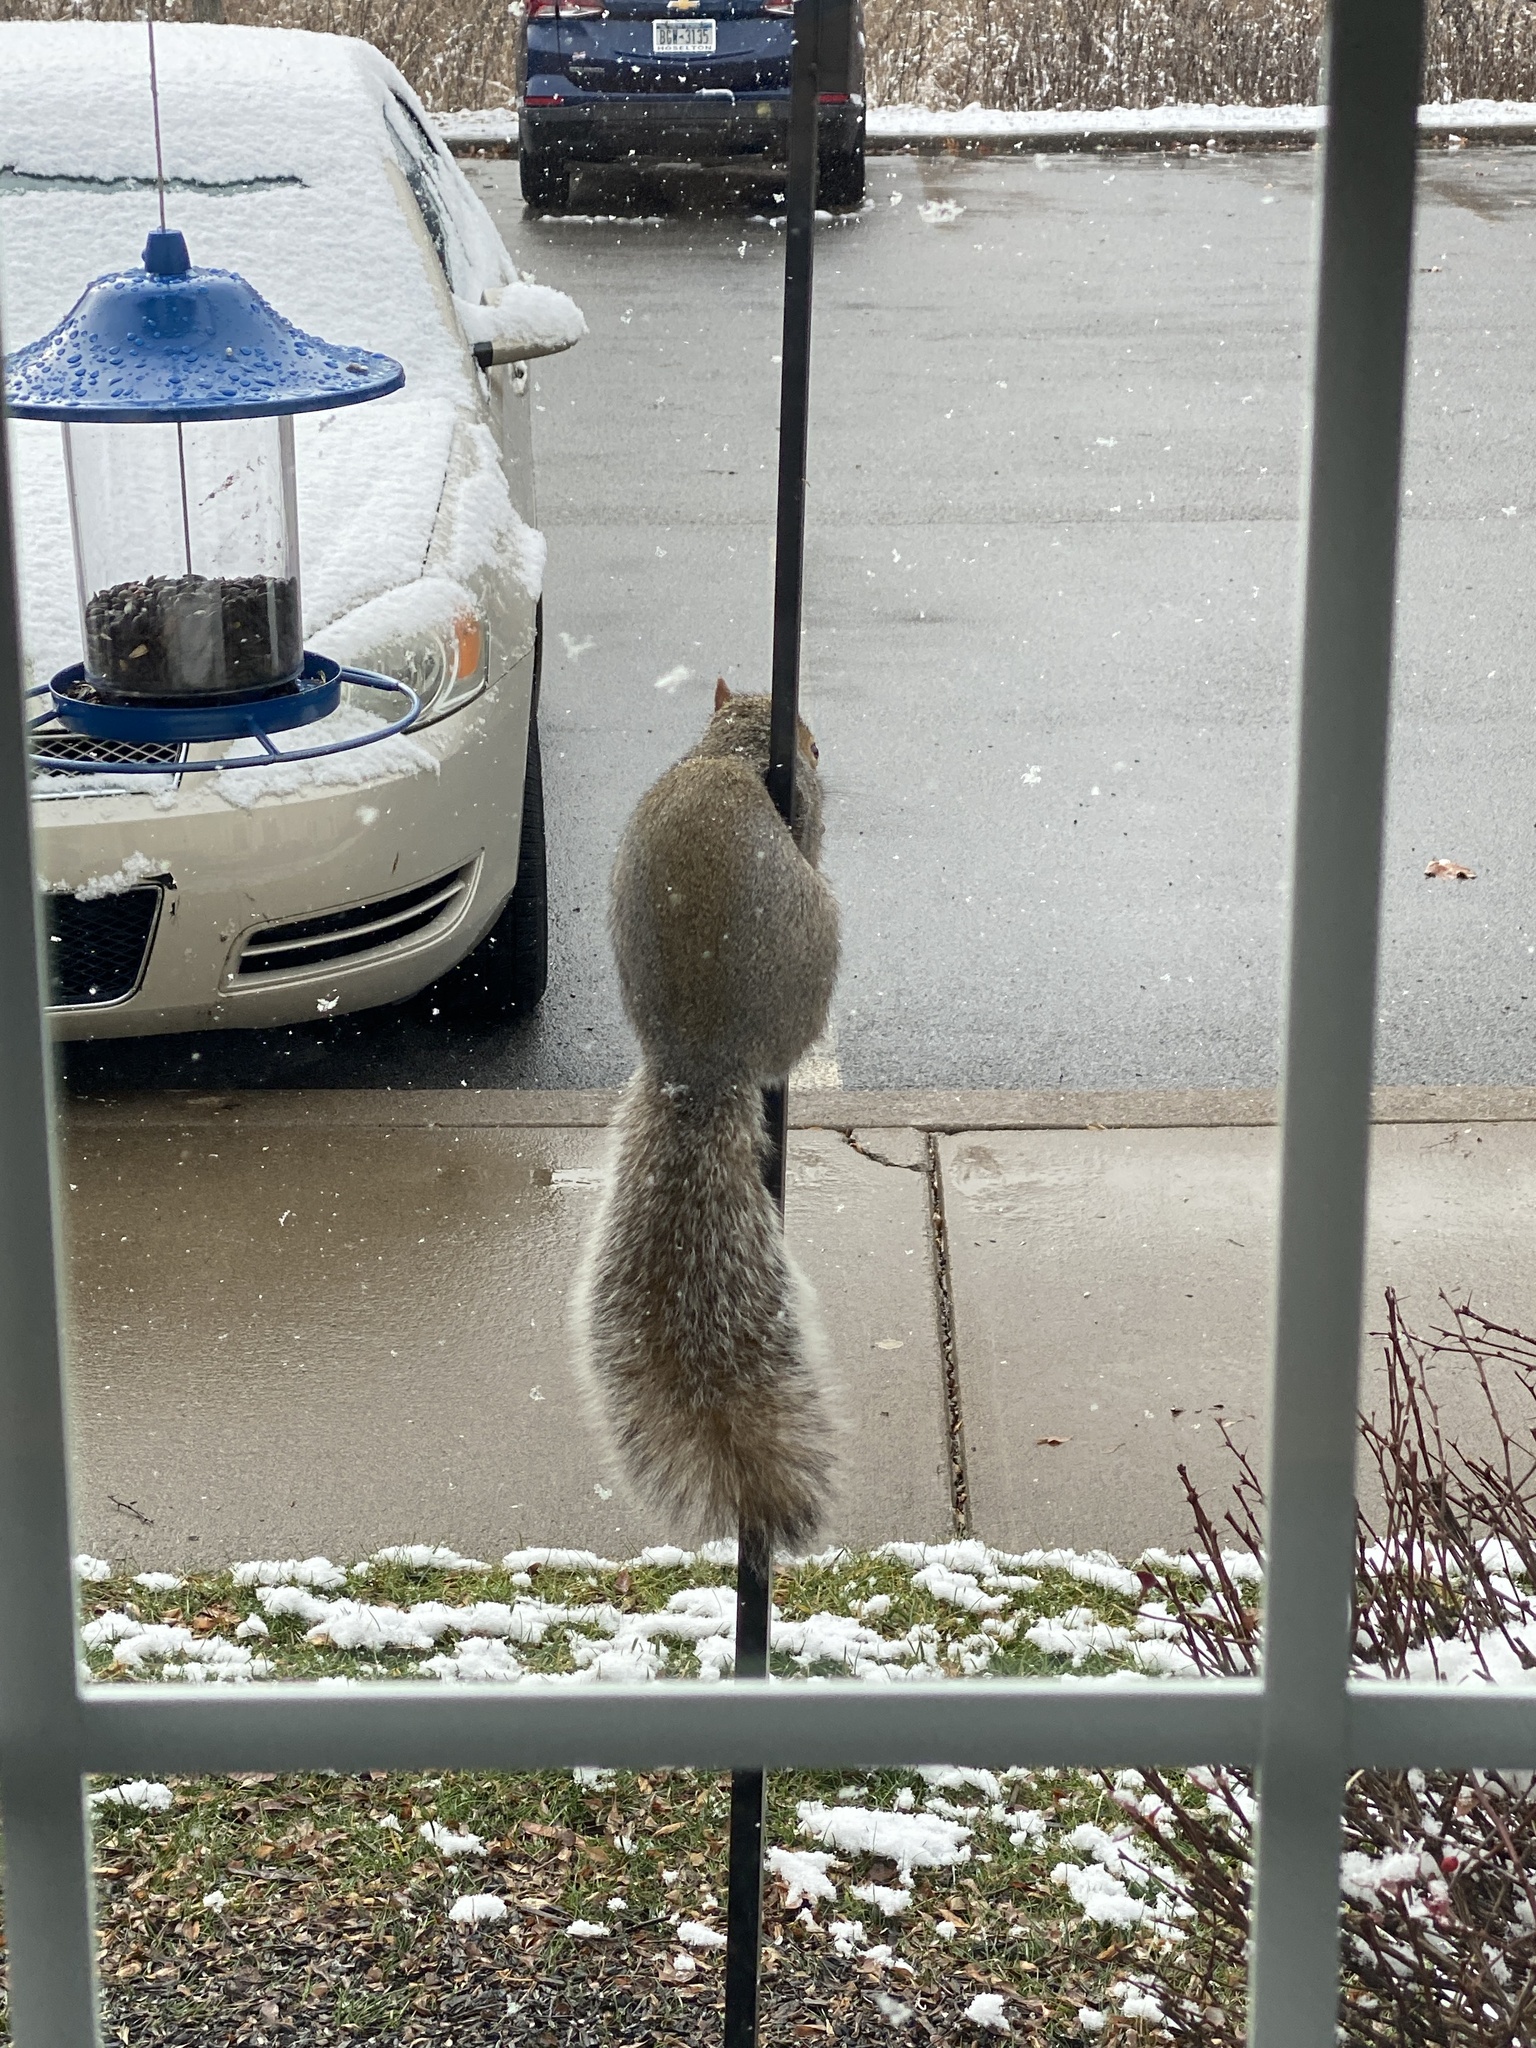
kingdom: Animalia
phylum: Chordata
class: Mammalia
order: Rodentia
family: Sciuridae
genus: Sciurus
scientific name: Sciurus carolinensis
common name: Eastern gray squirrel
